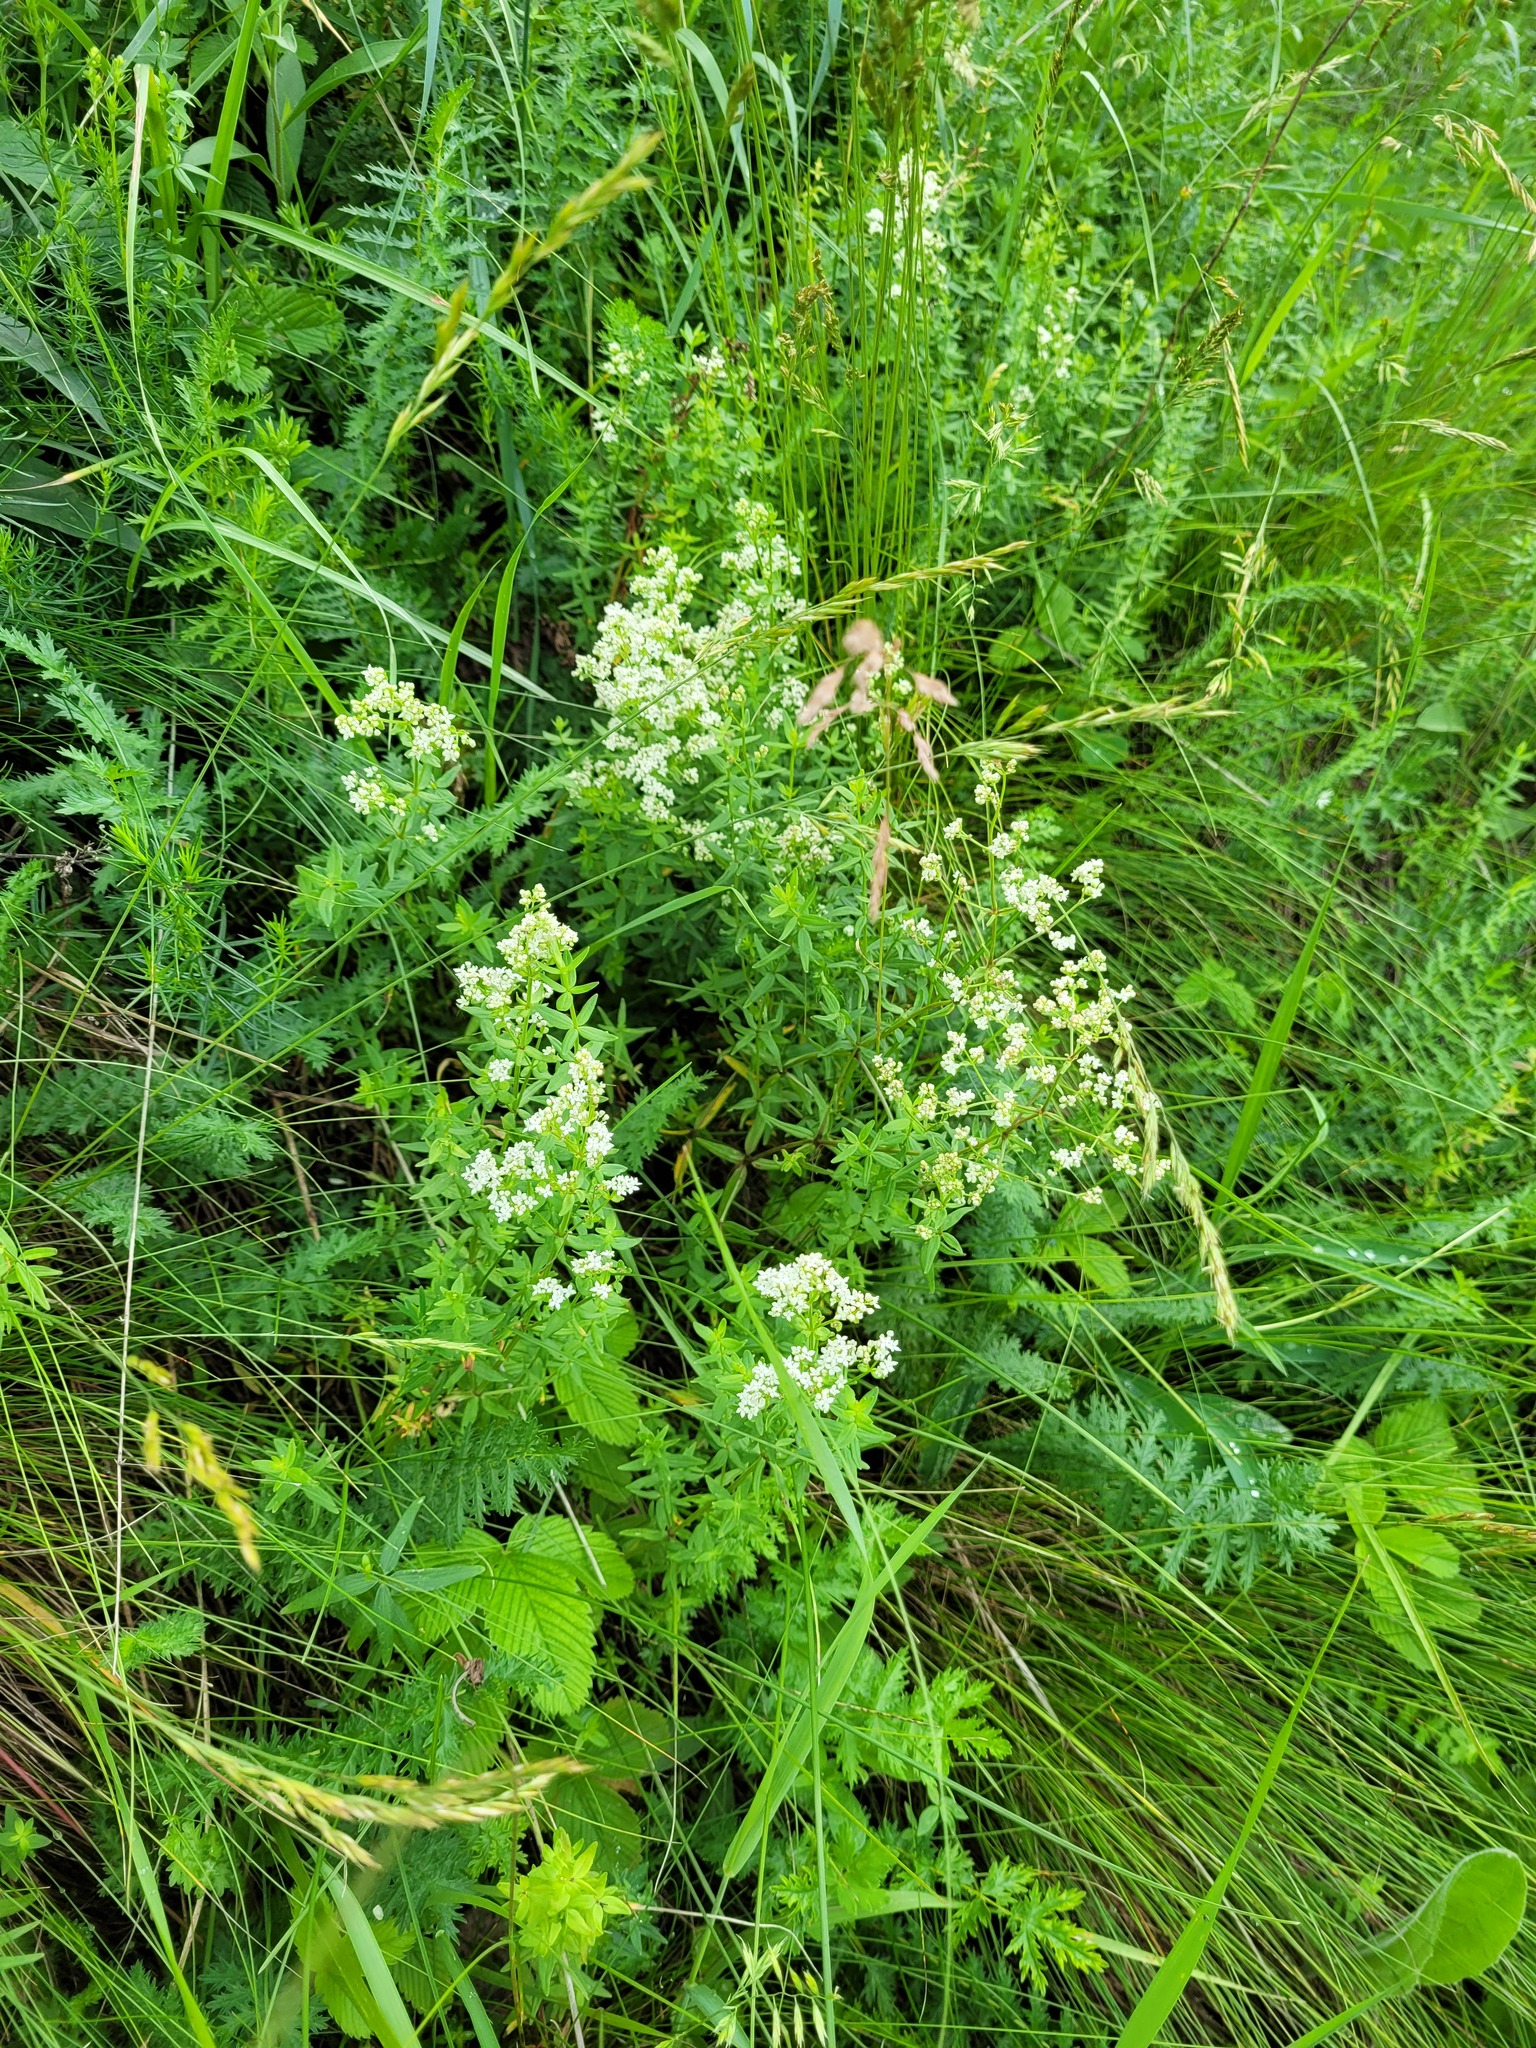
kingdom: Plantae
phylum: Tracheophyta
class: Magnoliopsida
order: Gentianales
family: Rubiaceae
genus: Galium
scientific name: Galium boreale
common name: Northern bedstraw
